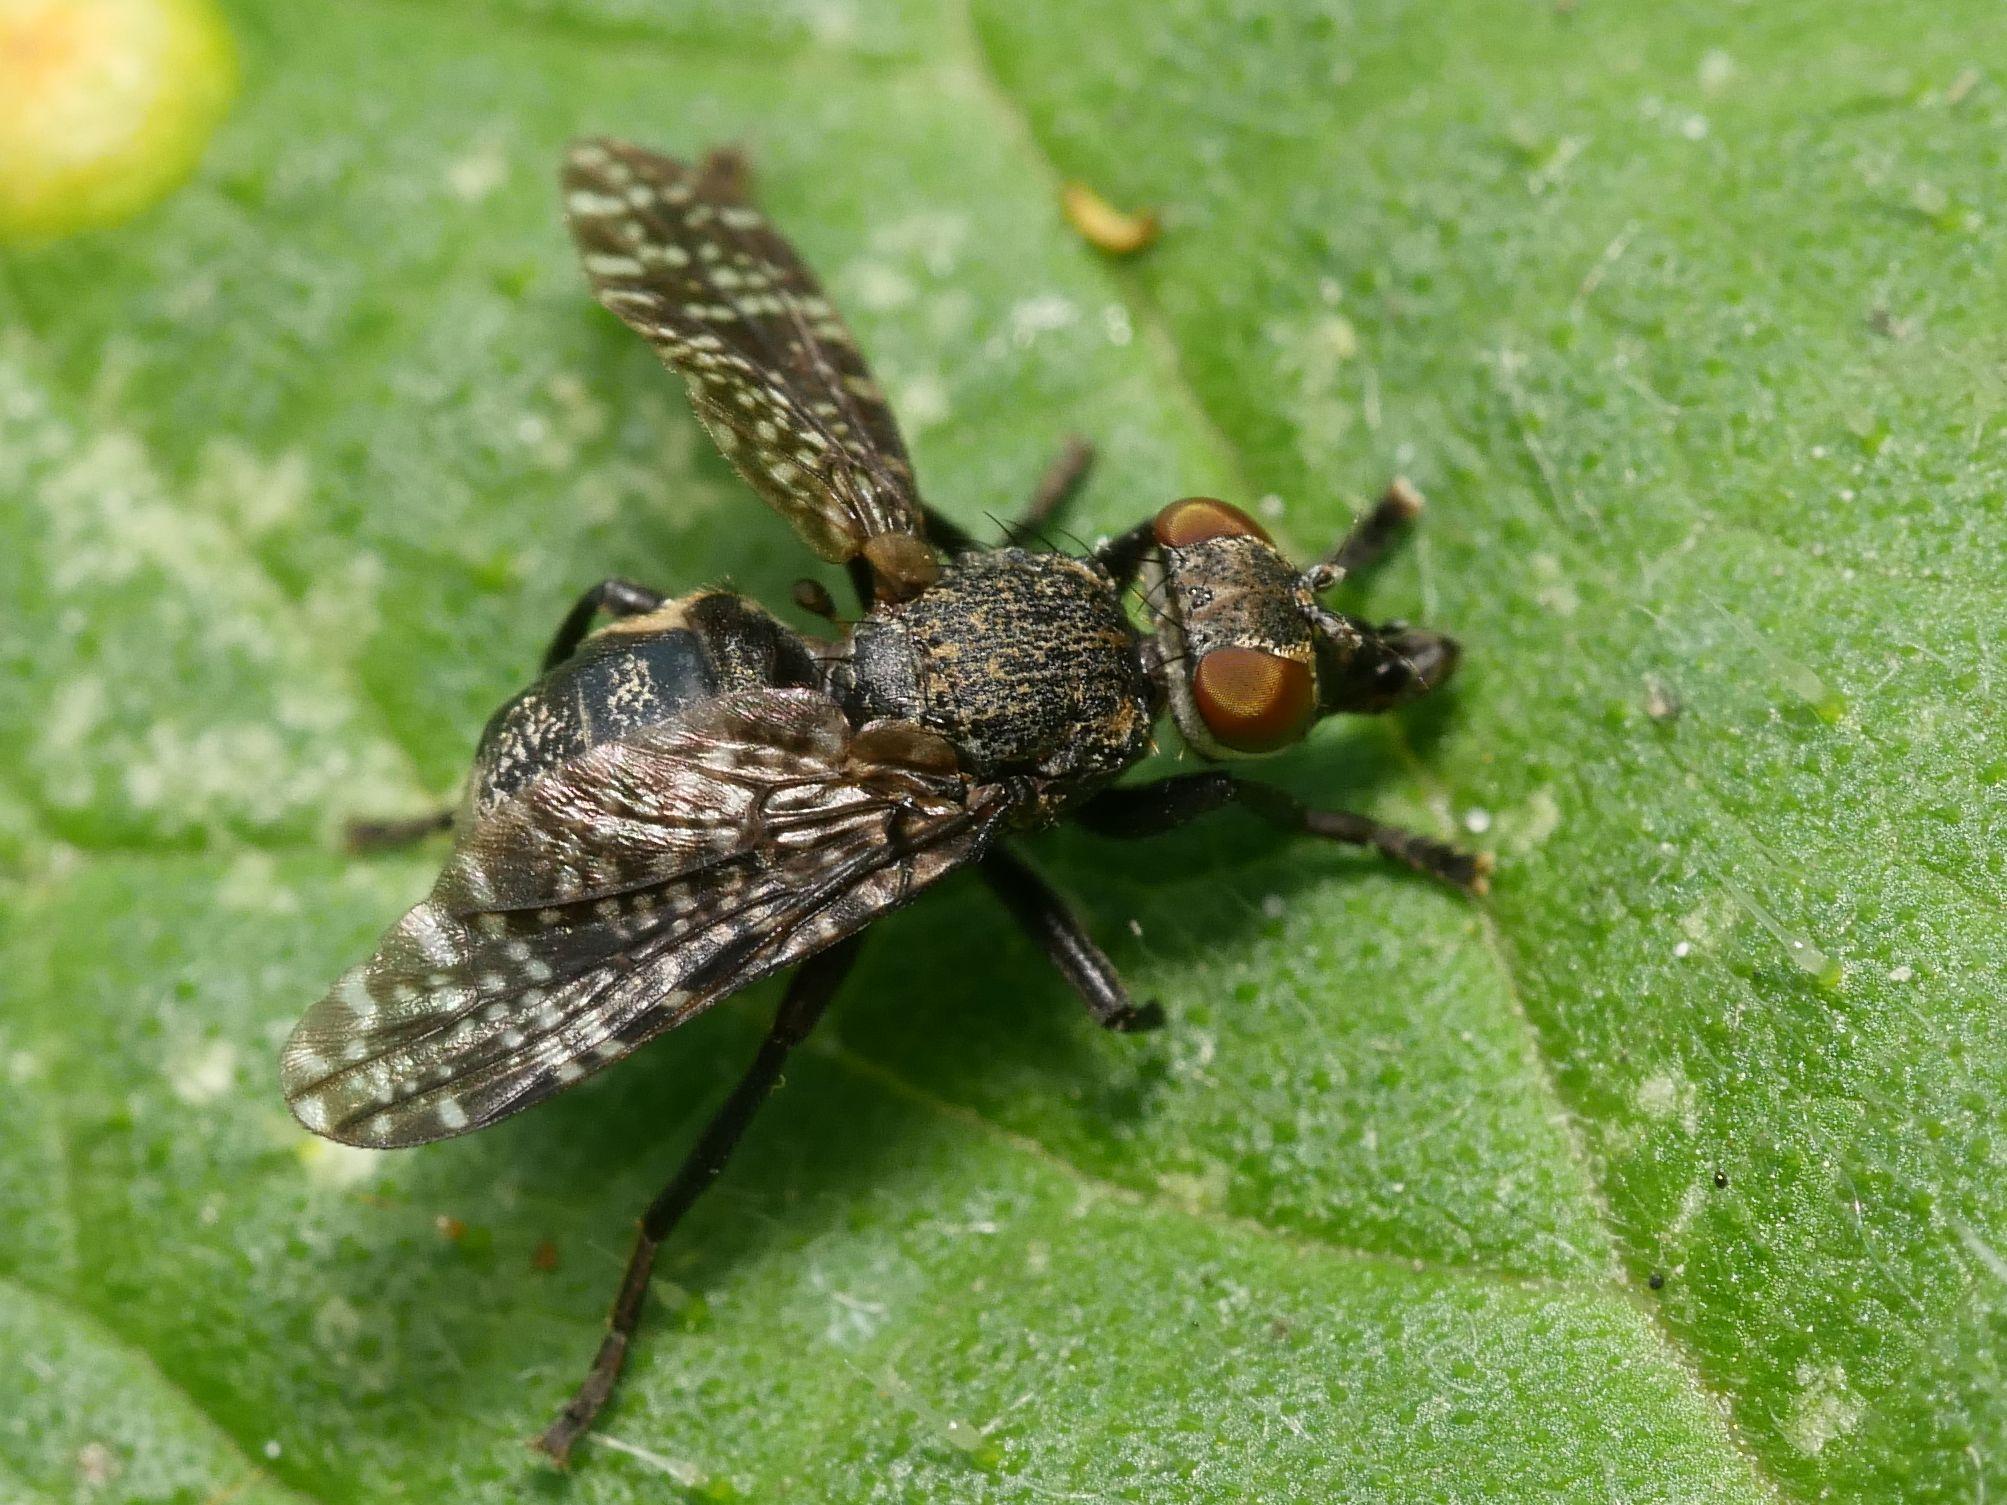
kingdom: Animalia
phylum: Arthropoda
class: Insecta
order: Diptera
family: Platystomatidae
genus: Platystoma
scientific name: Platystoma seminationis
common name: Fly
